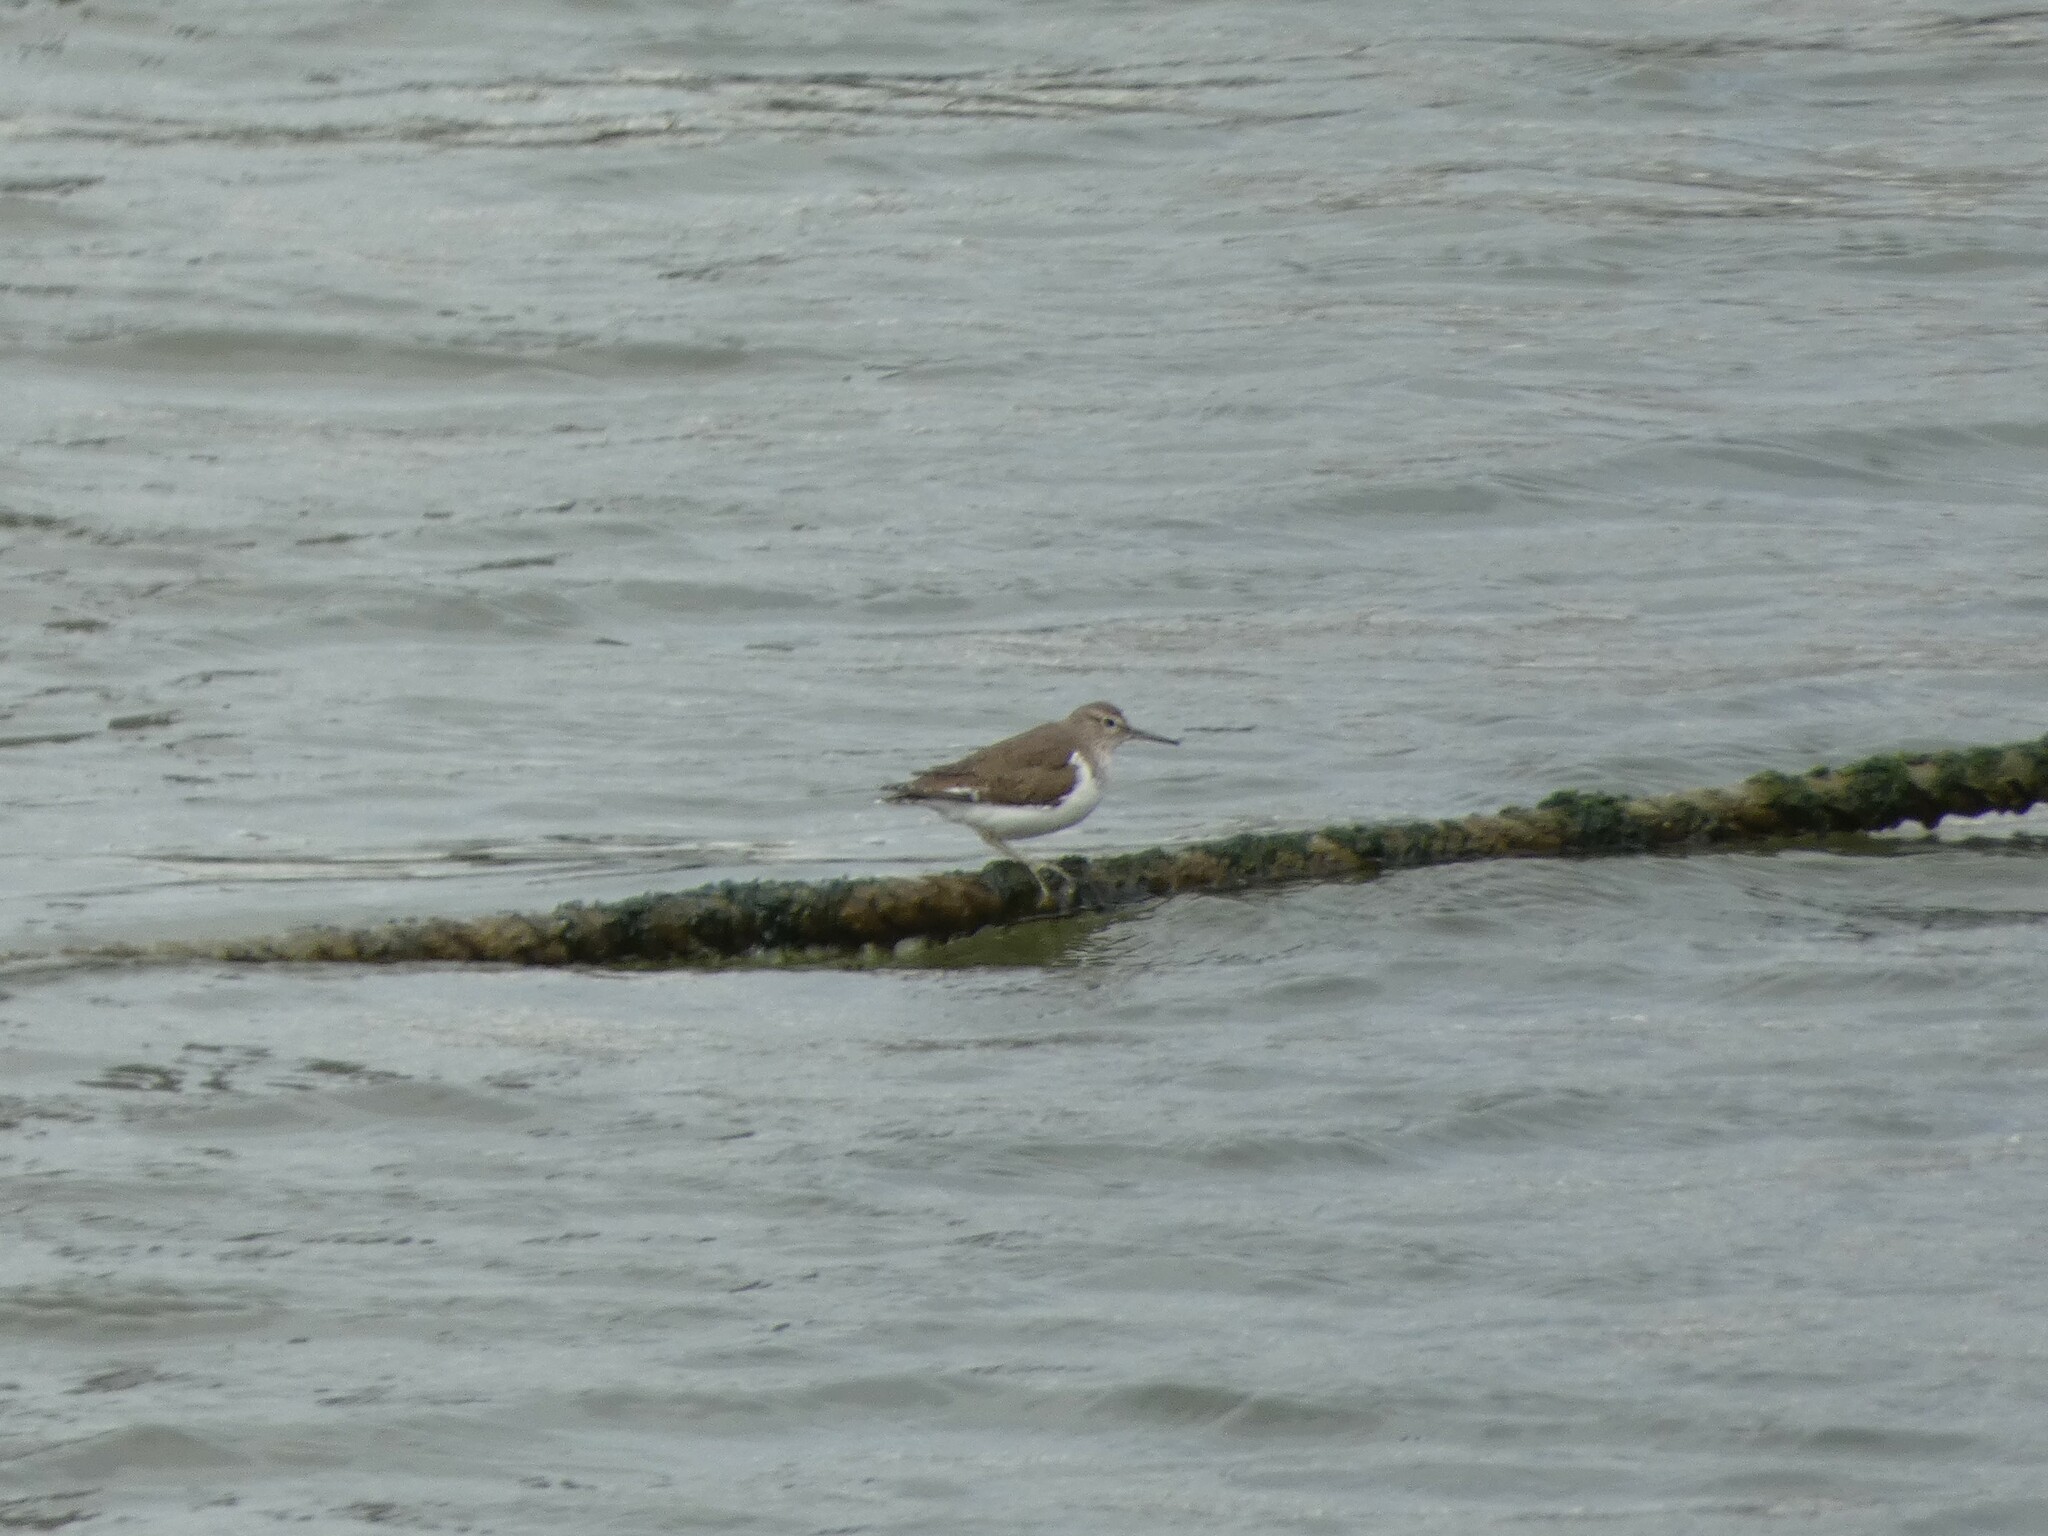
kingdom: Animalia
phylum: Chordata
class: Aves
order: Charadriiformes
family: Scolopacidae
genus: Actitis
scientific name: Actitis hypoleucos
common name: Common sandpiper
